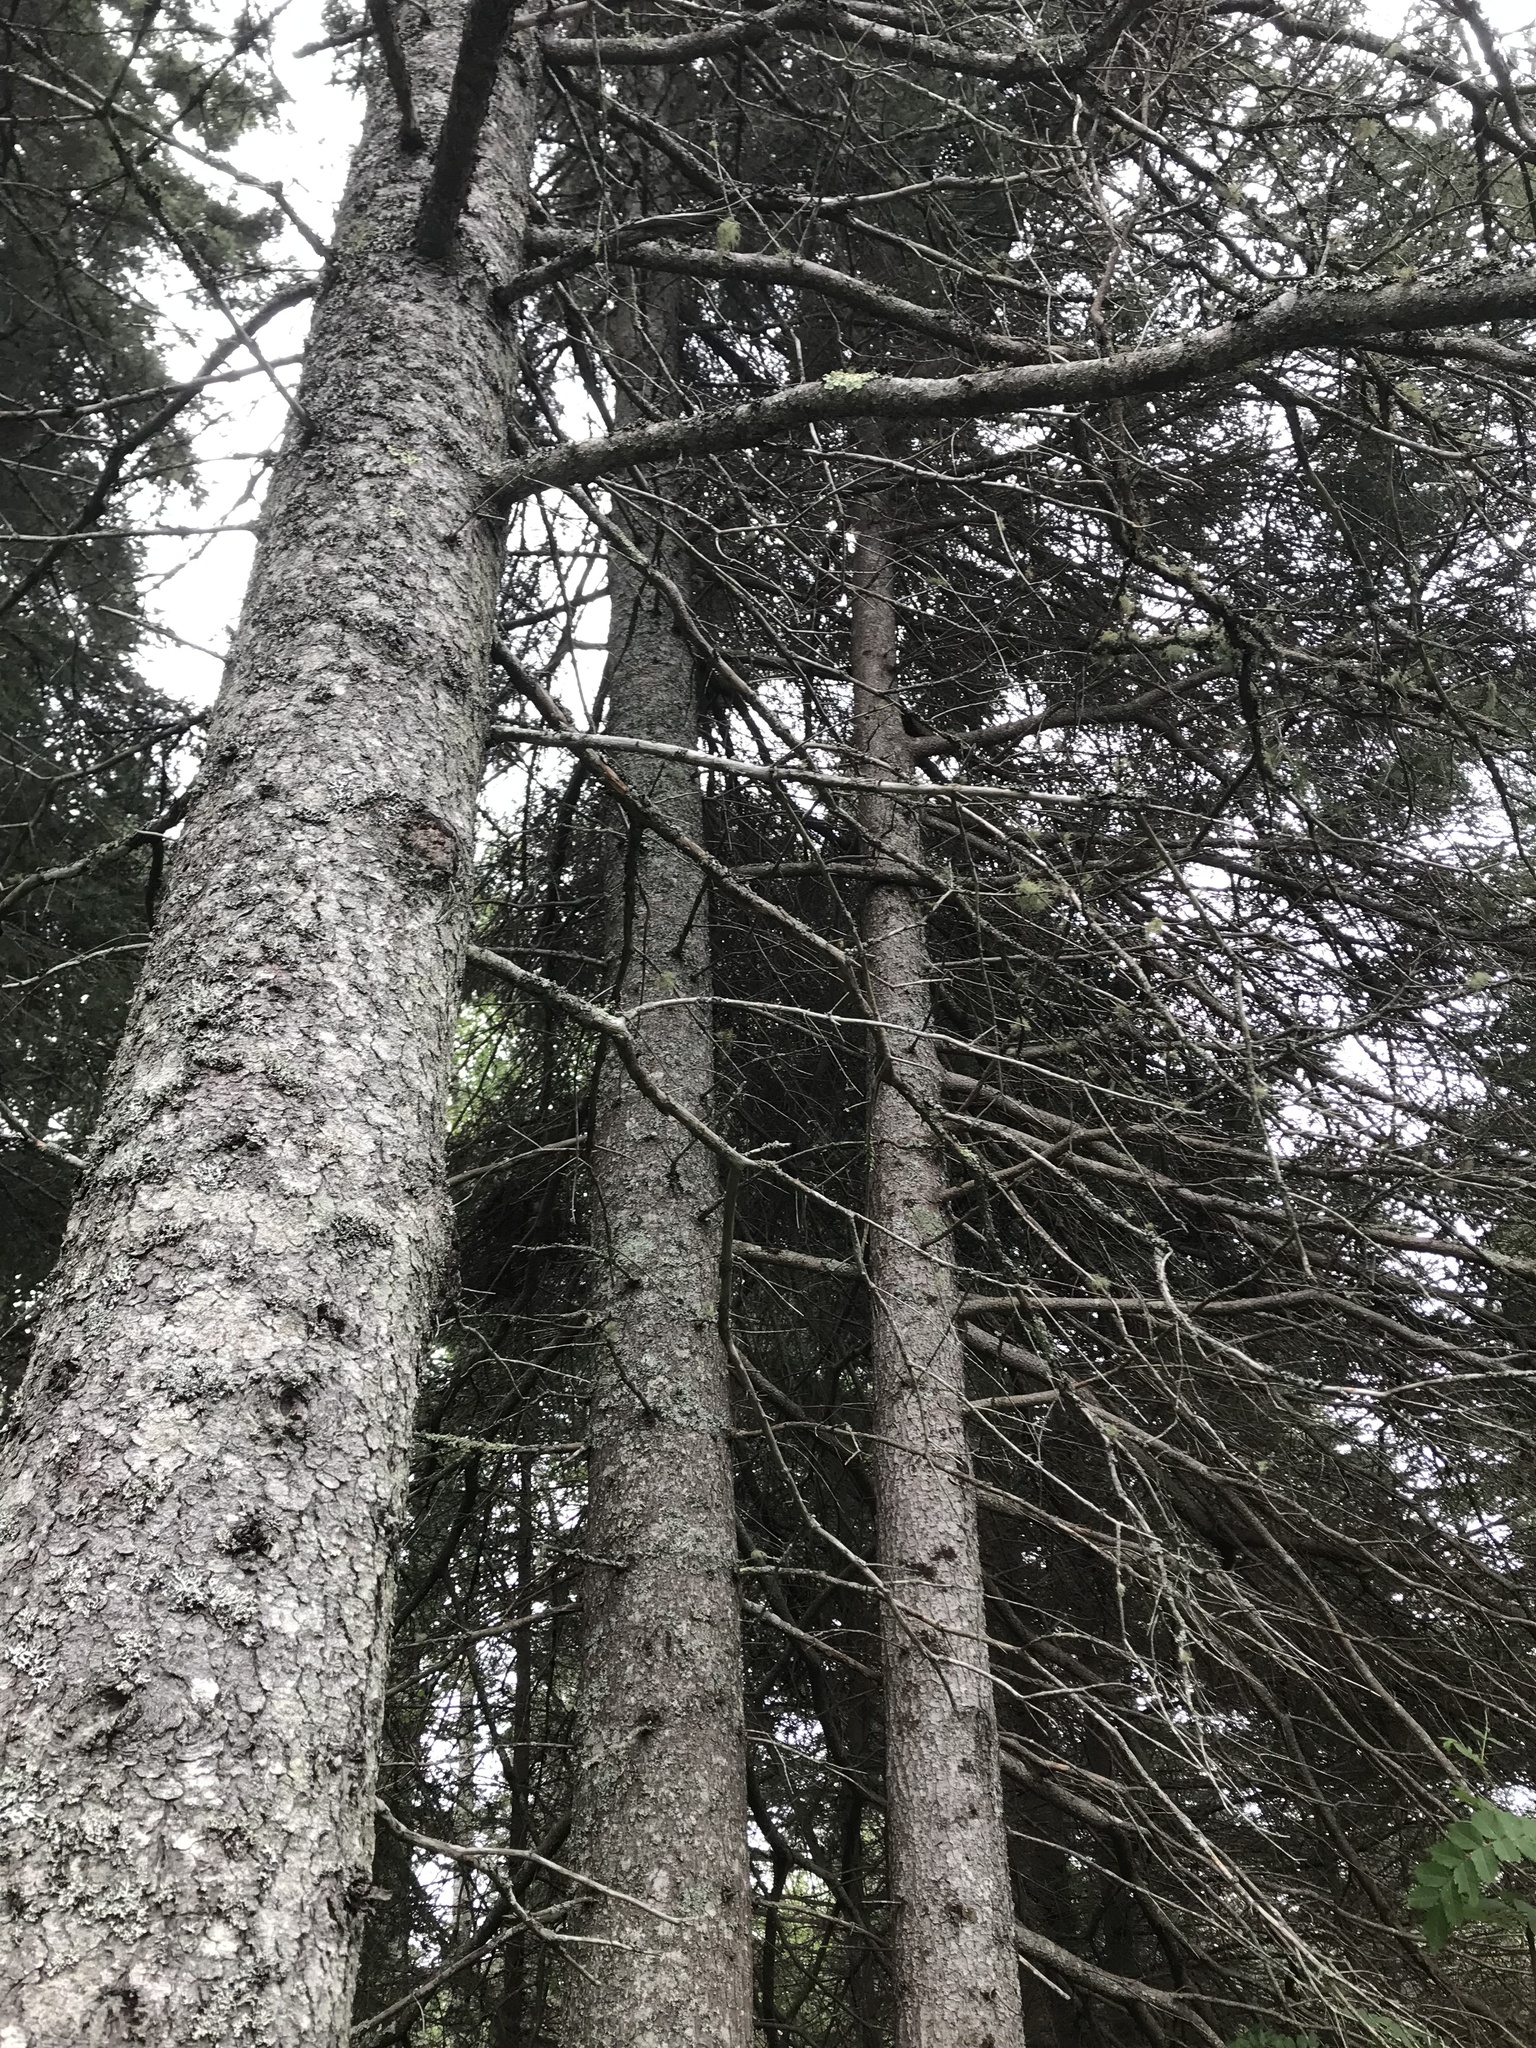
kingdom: Plantae
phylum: Tracheophyta
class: Pinopsida
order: Pinales
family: Pinaceae
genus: Picea
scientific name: Picea glauca
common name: White spruce
